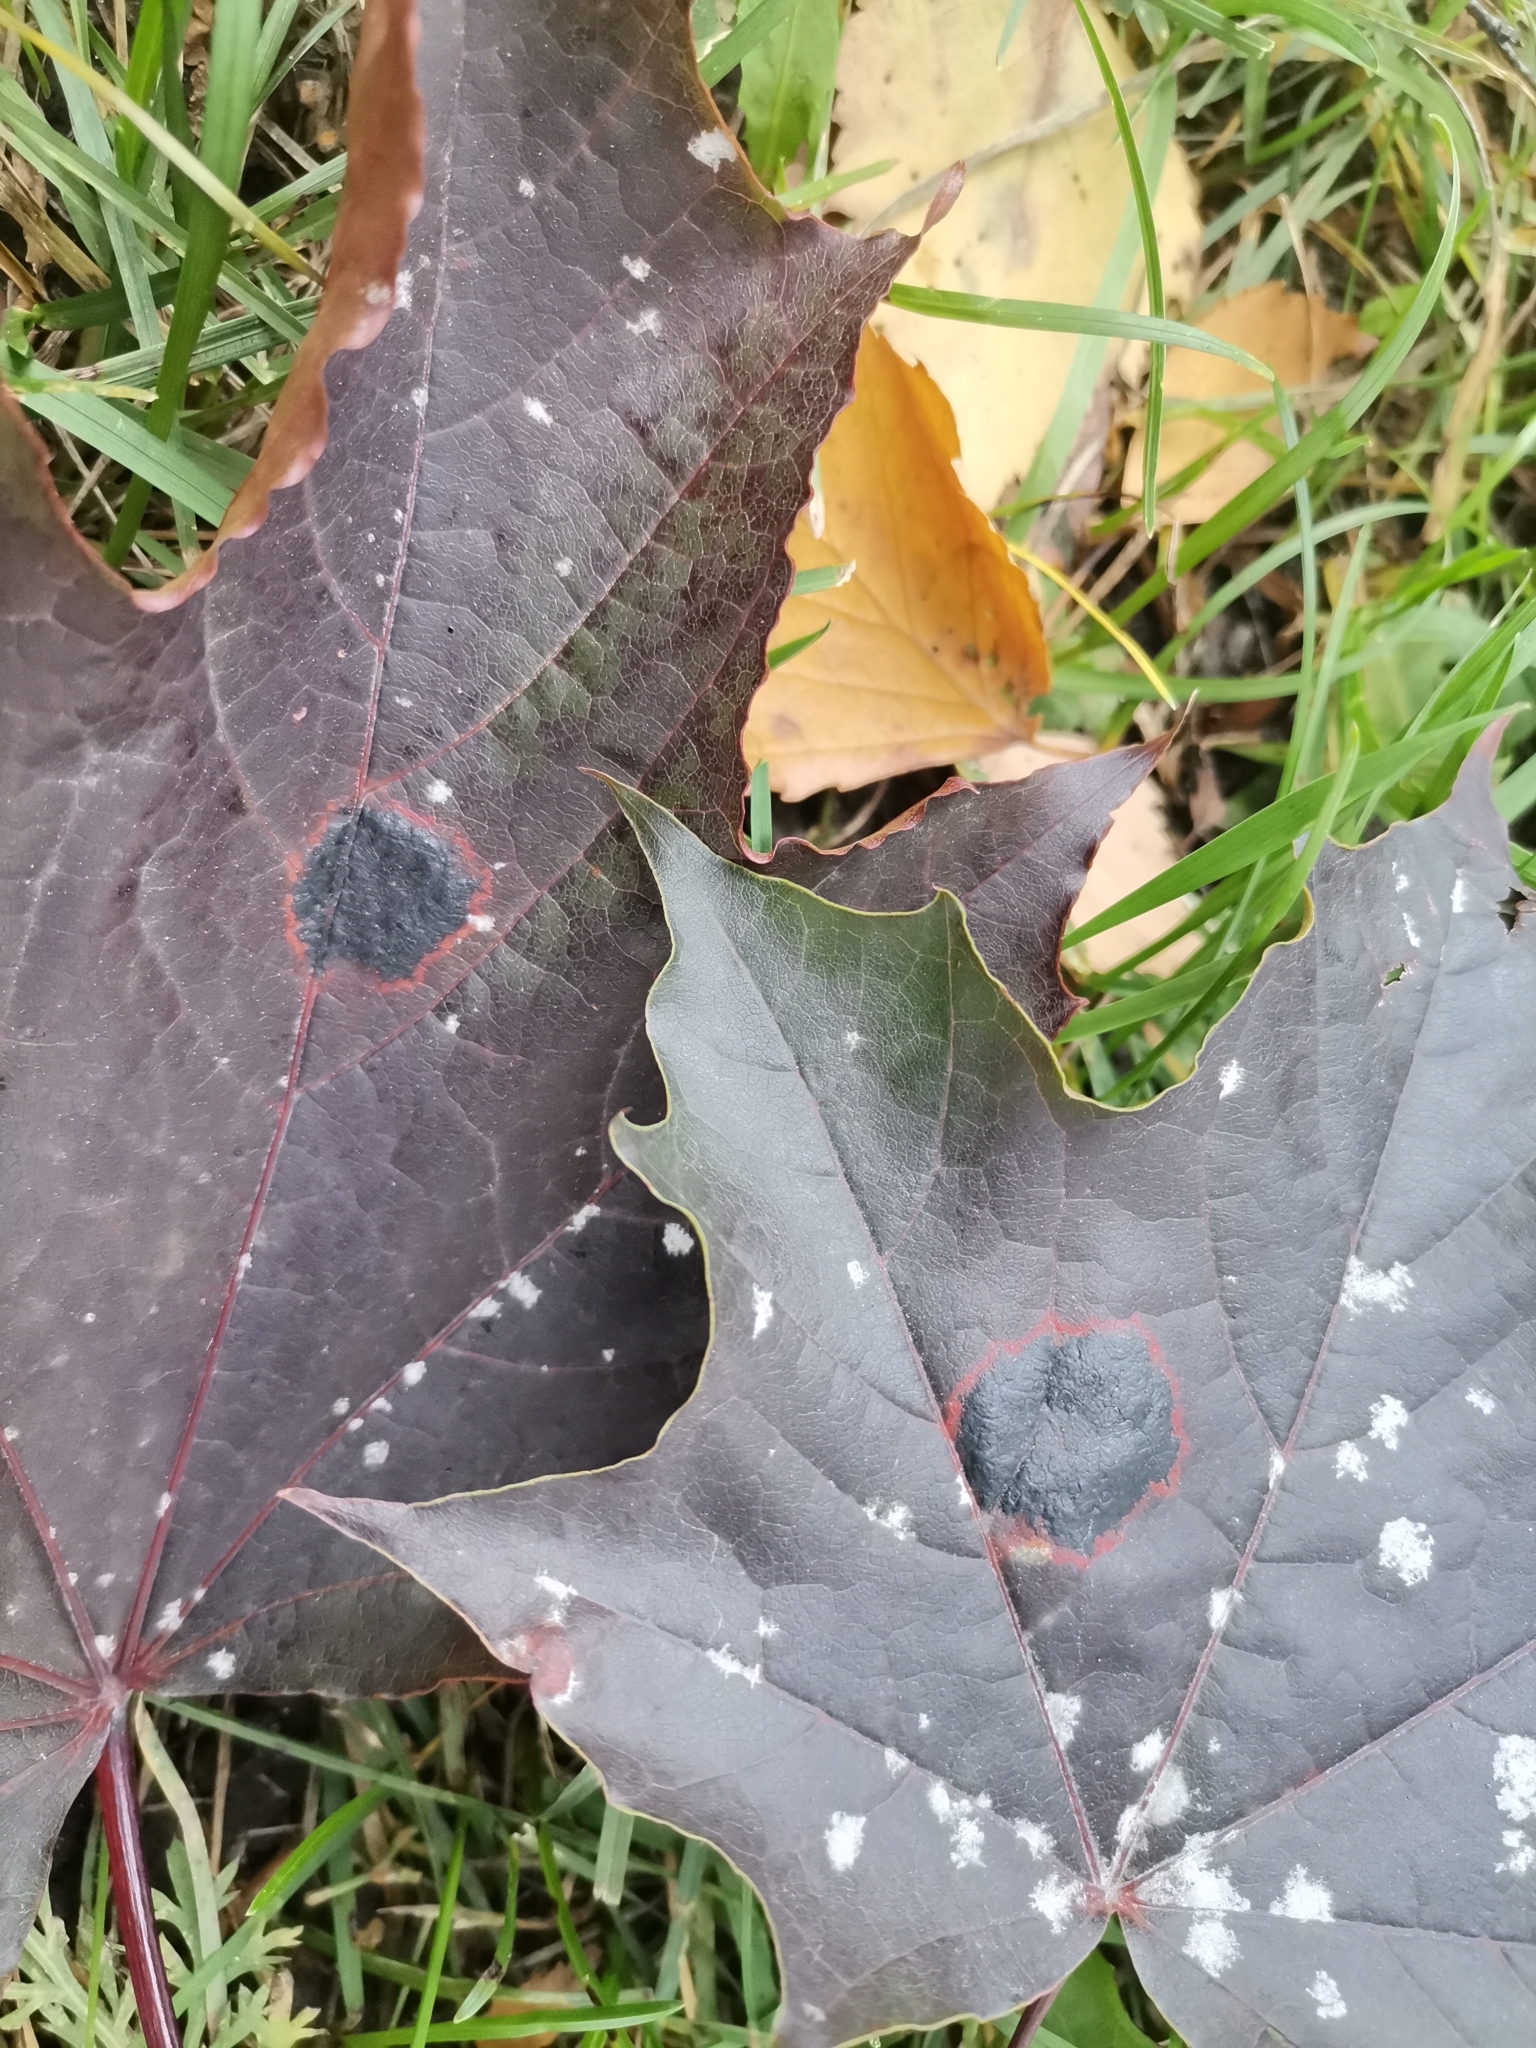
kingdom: Fungi
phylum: Ascomycota
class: Leotiomycetes
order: Rhytismatales
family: Rhytismataceae
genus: Rhytisma
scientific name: Rhytisma acerinum
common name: European tar spot
